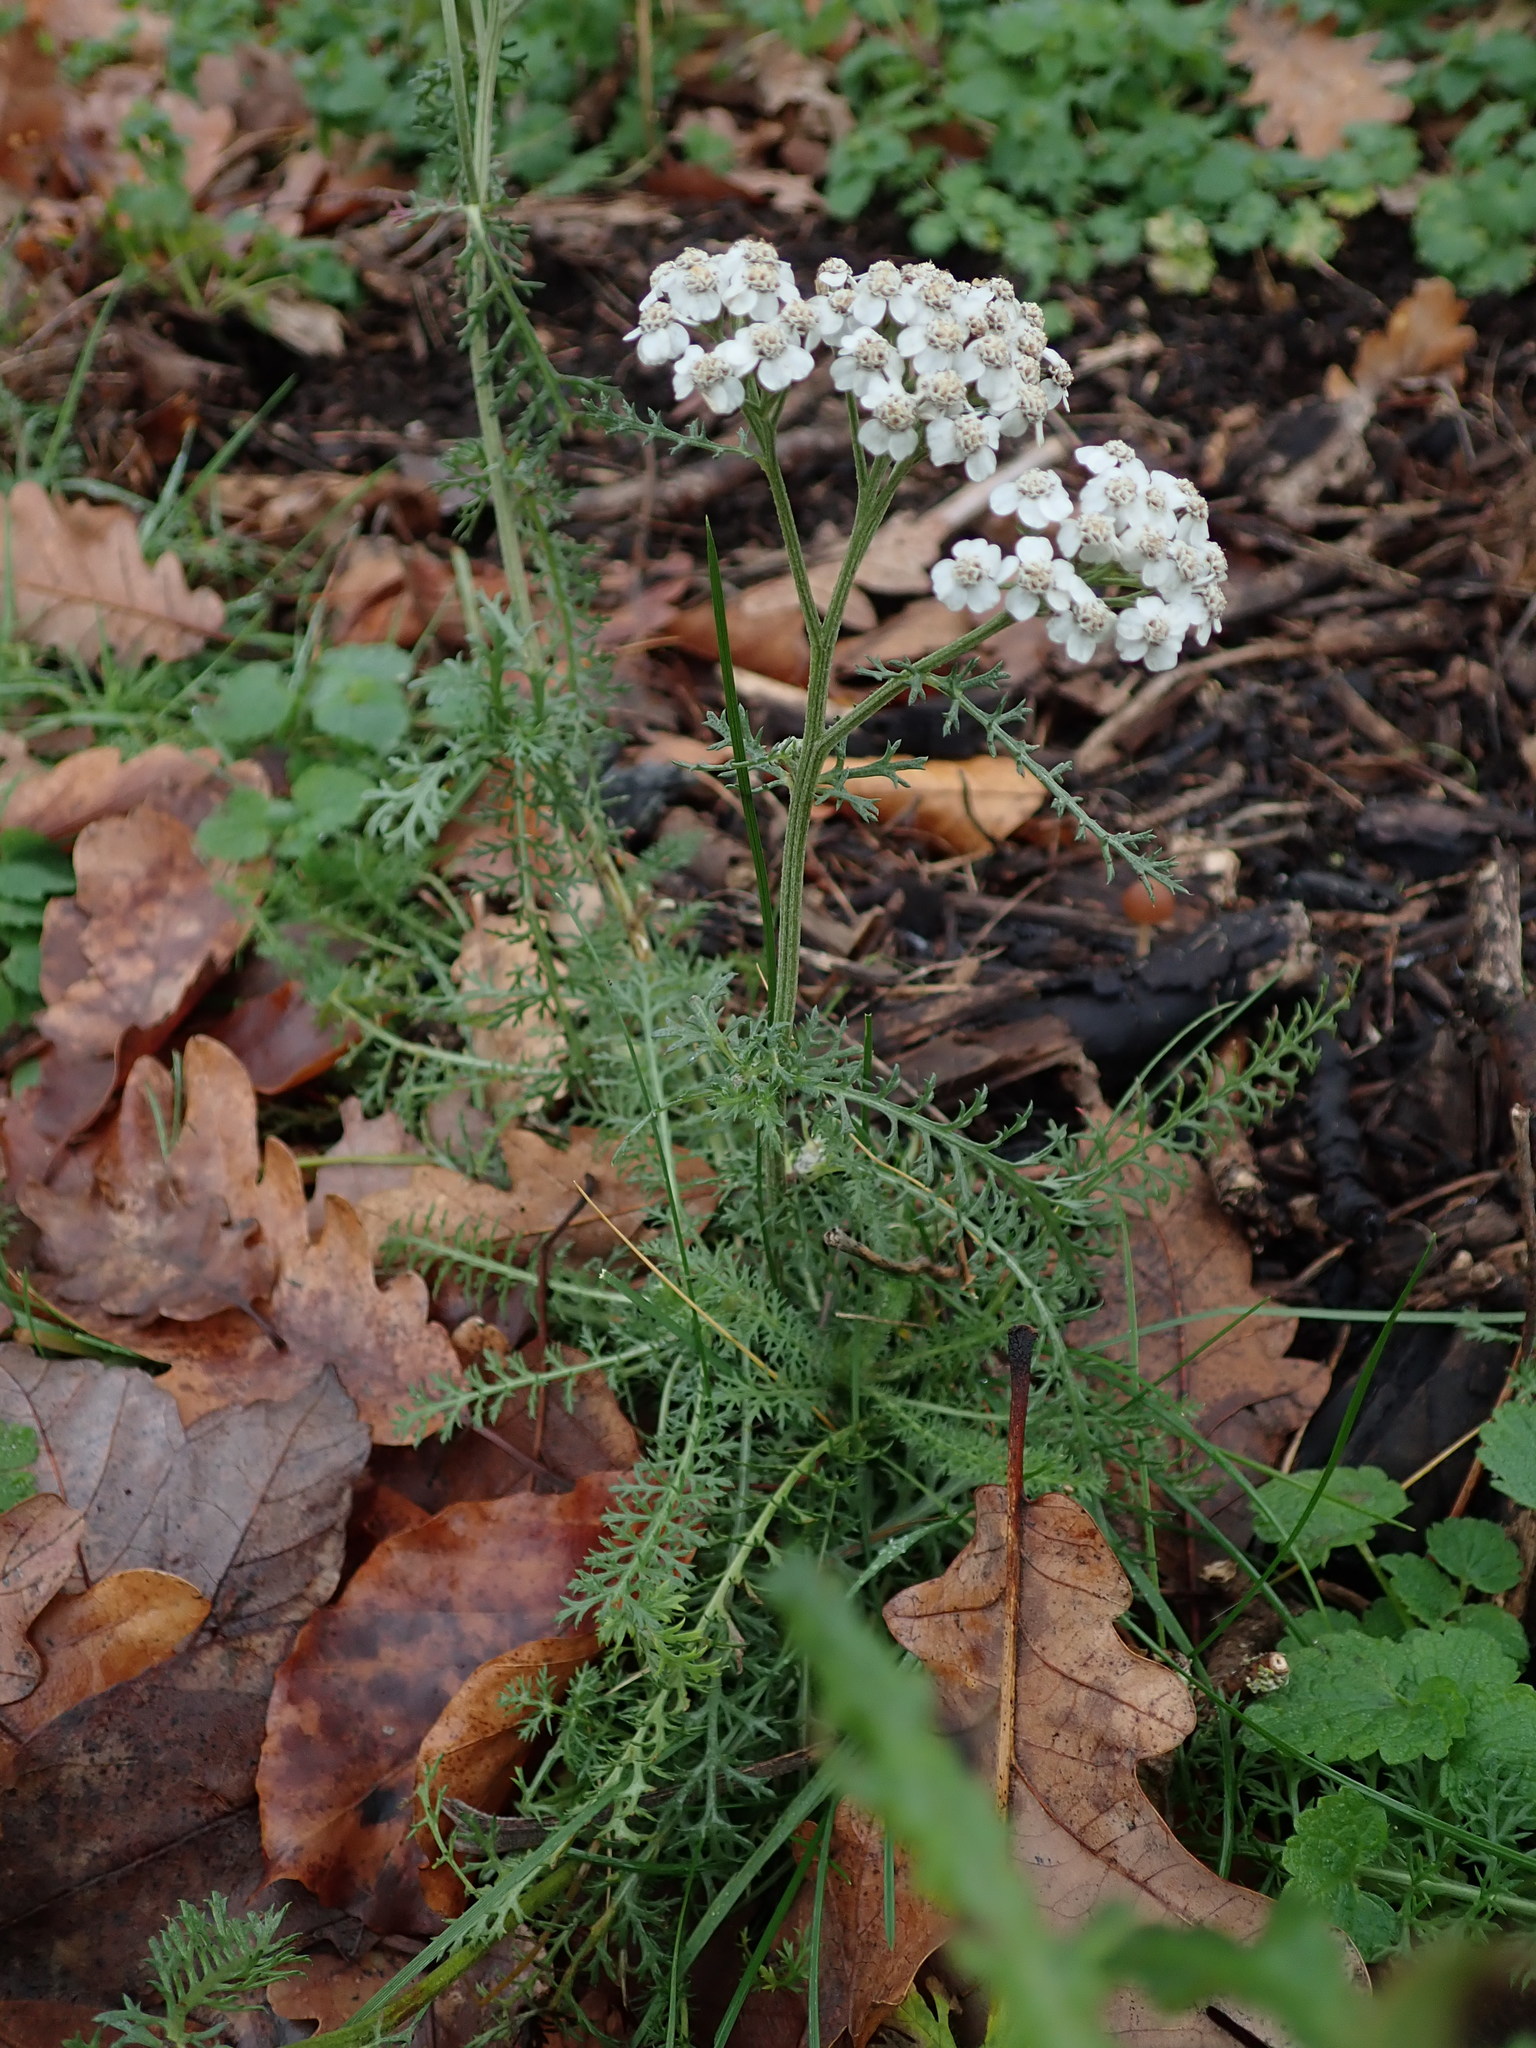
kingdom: Plantae
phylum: Tracheophyta
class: Magnoliopsida
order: Asterales
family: Asteraceae
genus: Achillea
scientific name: Achillea millefolium
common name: Yarrow
